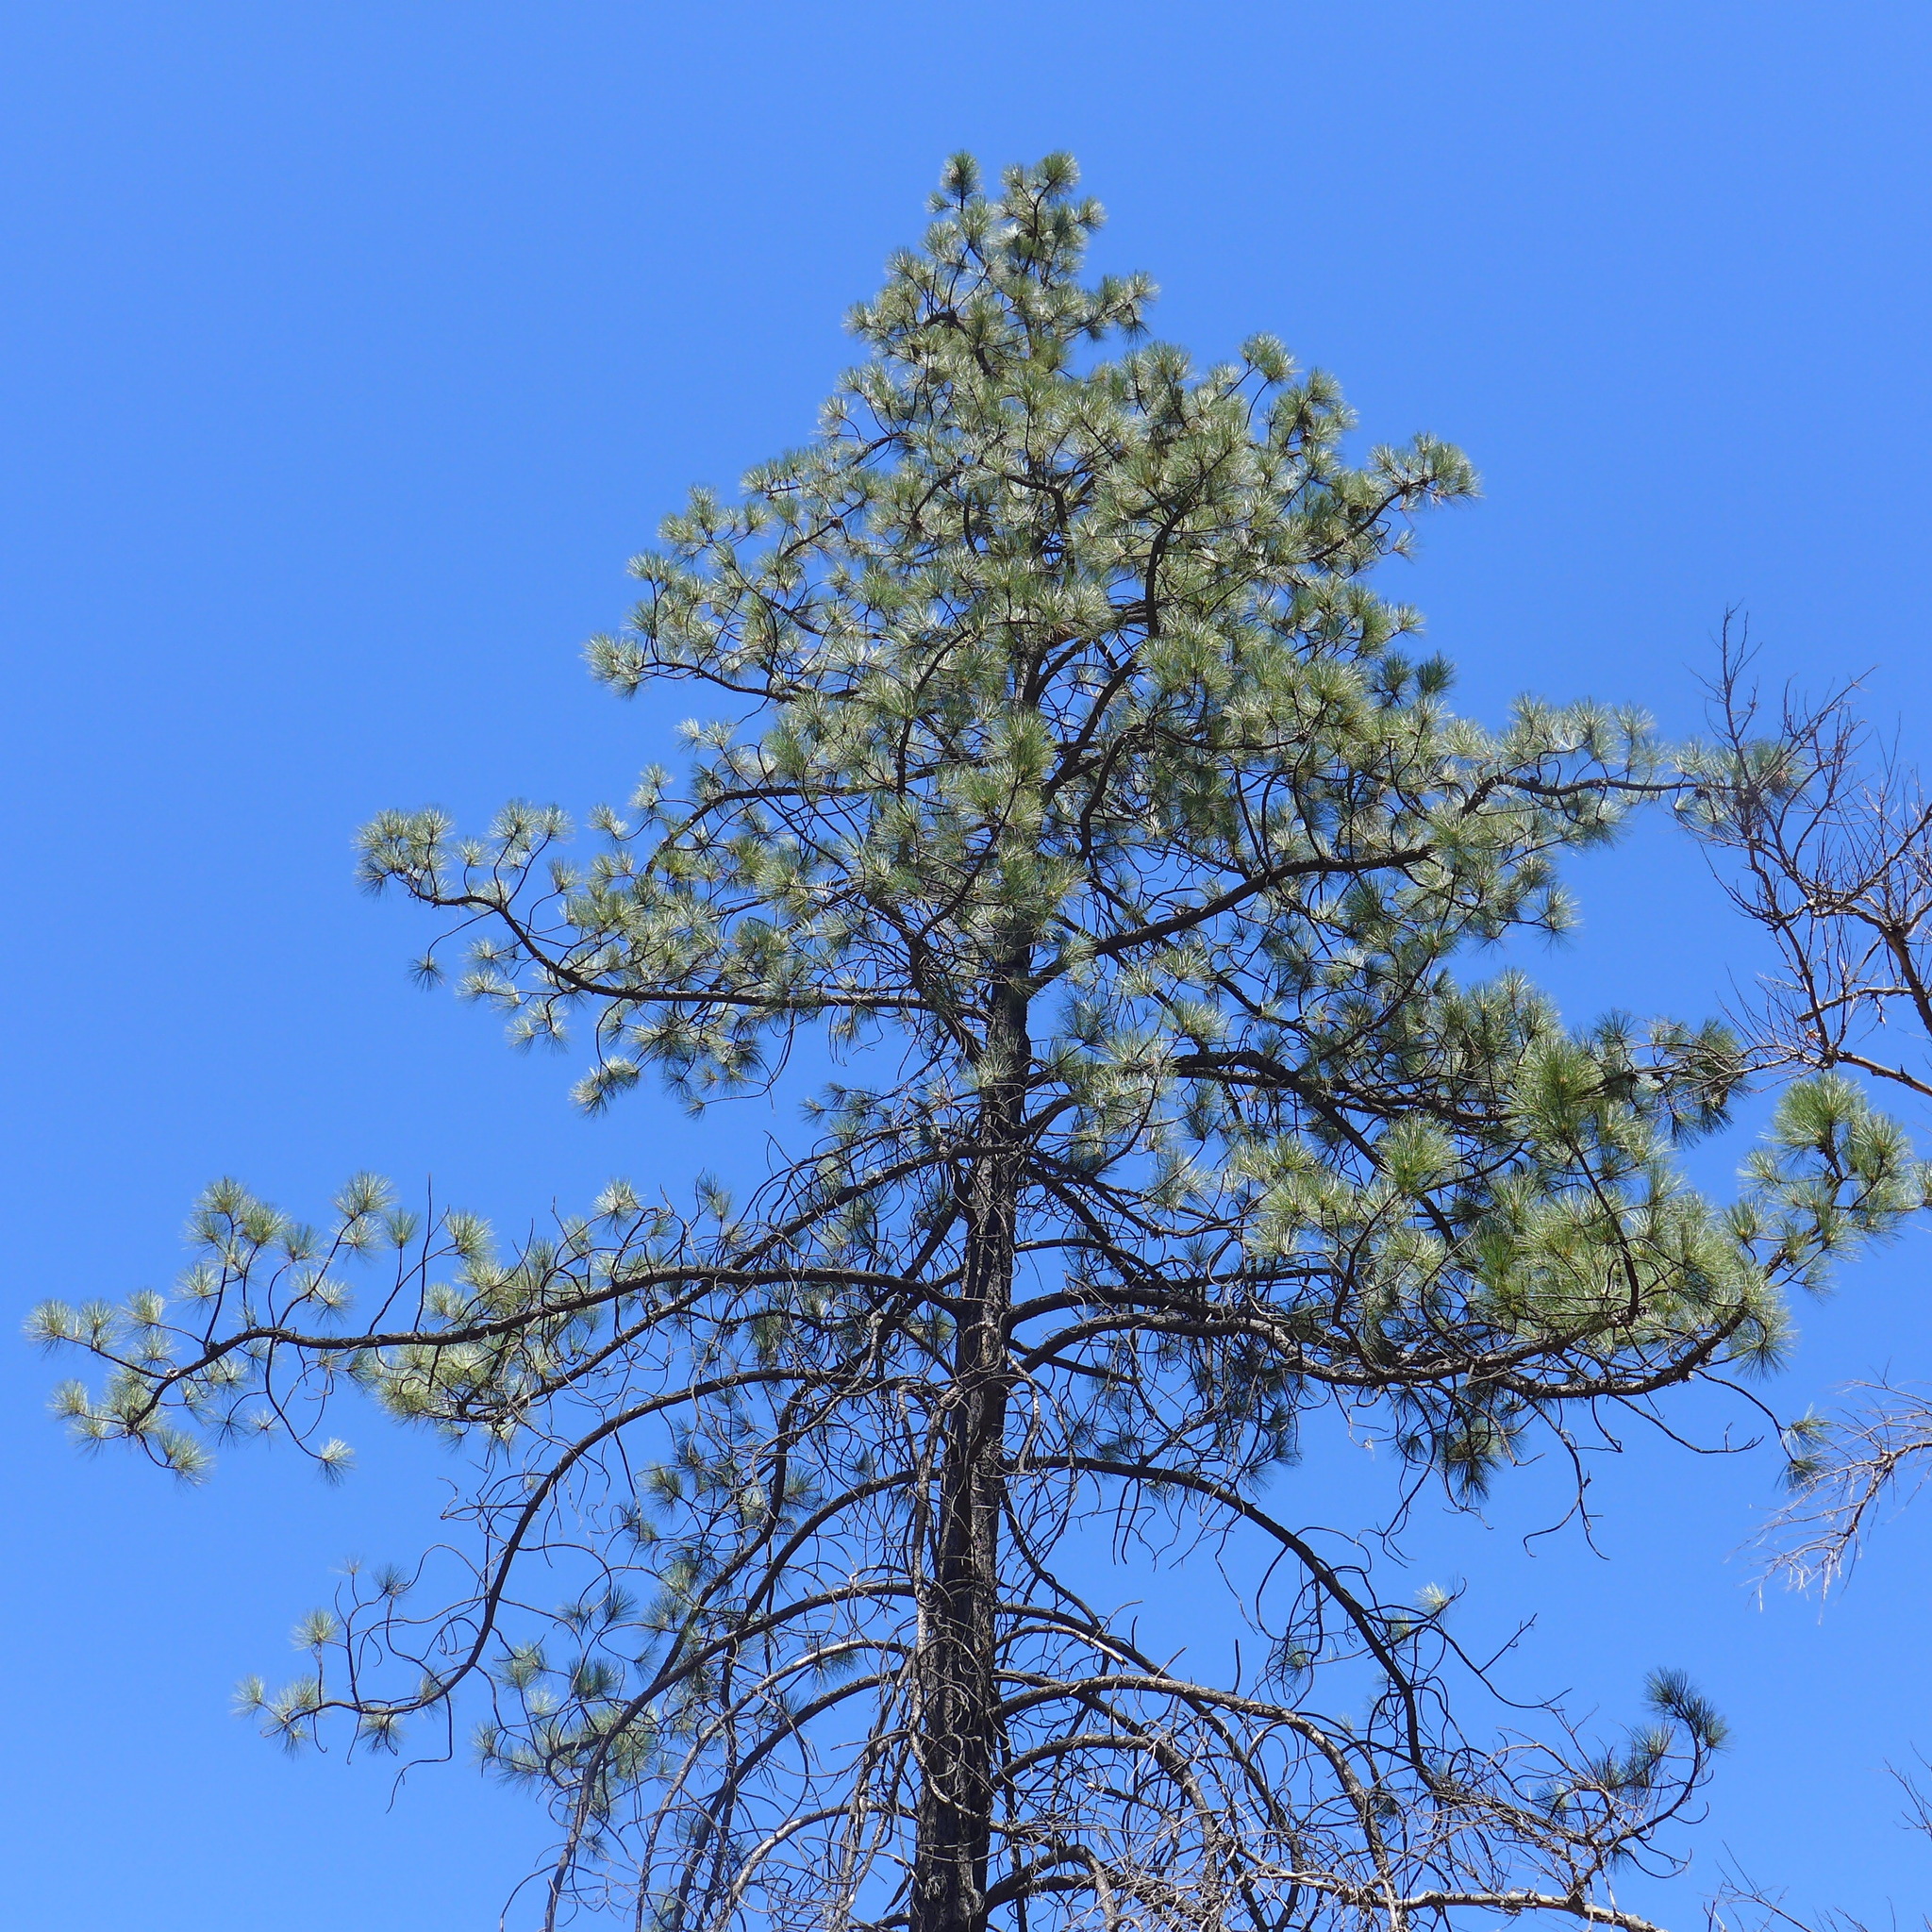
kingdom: Plantae
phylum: Tracheophyta
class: Pinopsida
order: Pinales
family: Pinaceae
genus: Pinus
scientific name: Pinus coulteri
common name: Coulter pine
